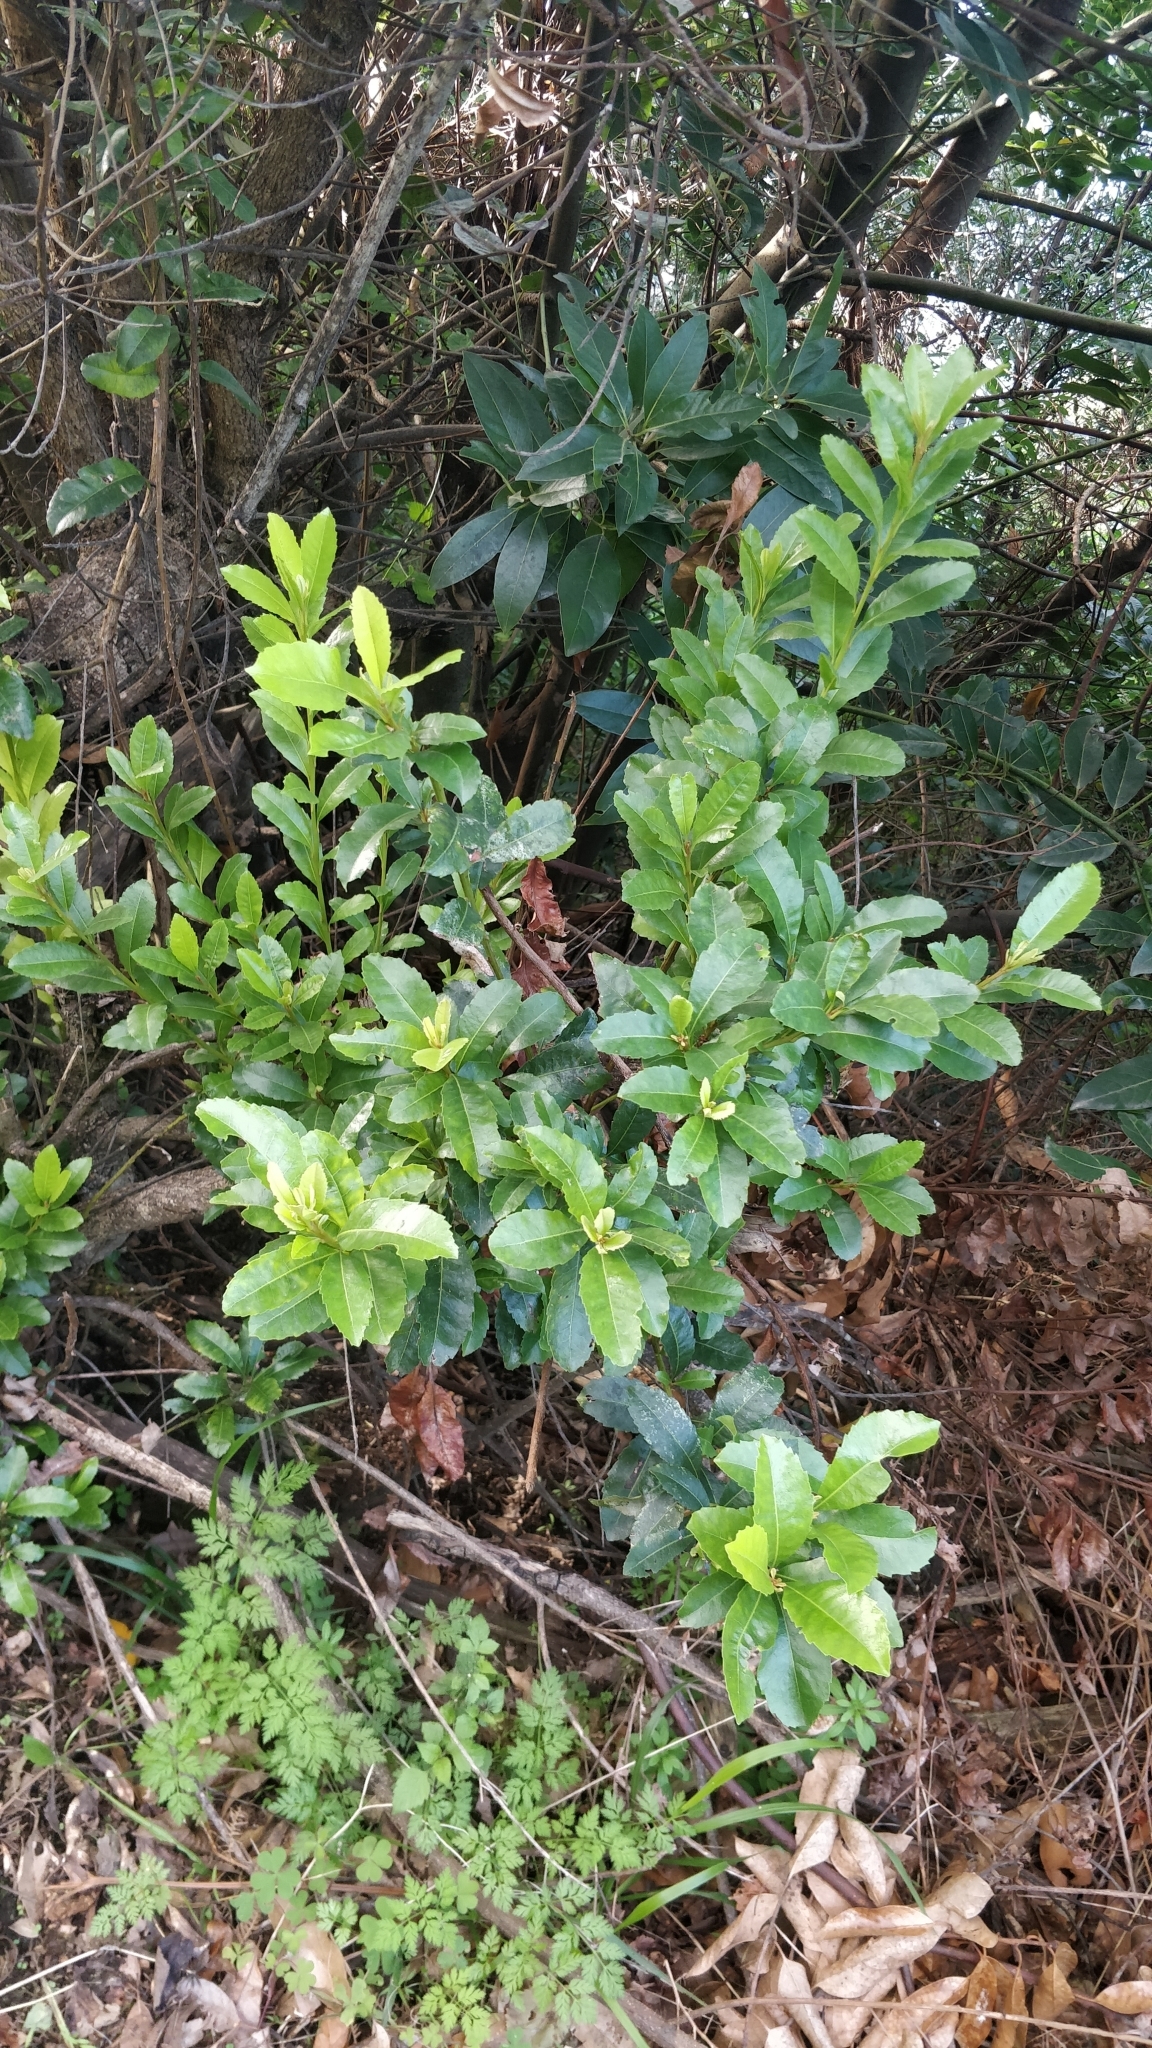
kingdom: Plantae
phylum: Tracheophyta
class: Magnoliopsida
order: Fagales
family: Myricaceae
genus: Morella
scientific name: Morella faya
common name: Firetree
